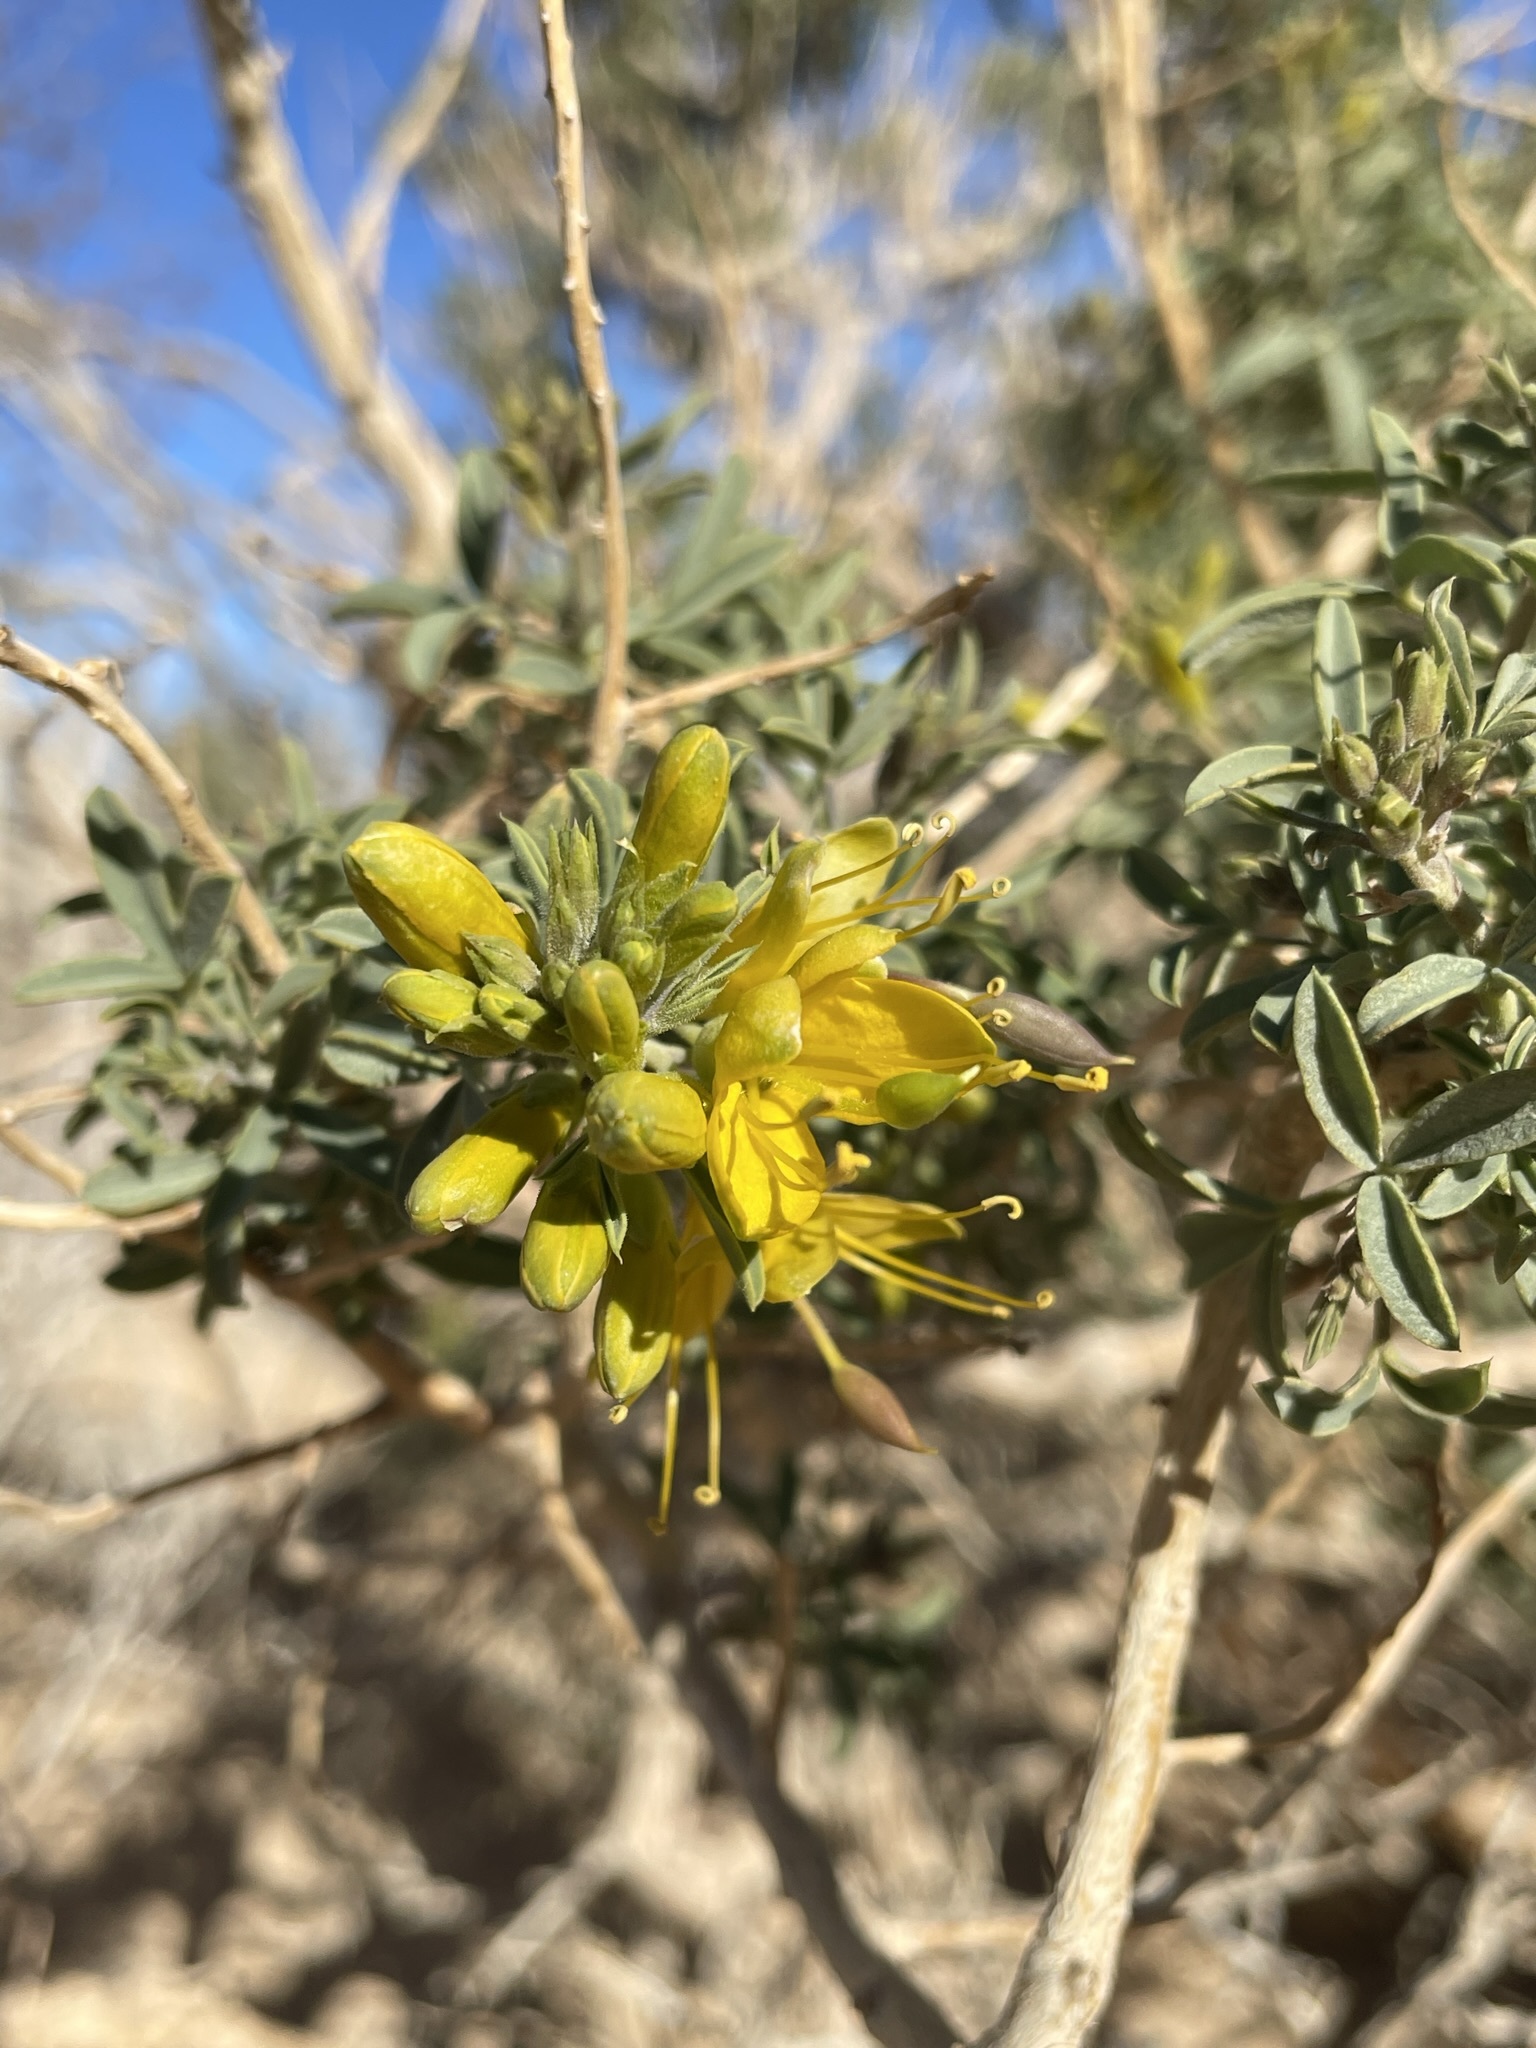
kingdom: Plantae
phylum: Tracheophyta
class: Magnoliopsida
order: Brassicales
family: Cleomaceae
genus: Cleomella
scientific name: Cleomella arborea
